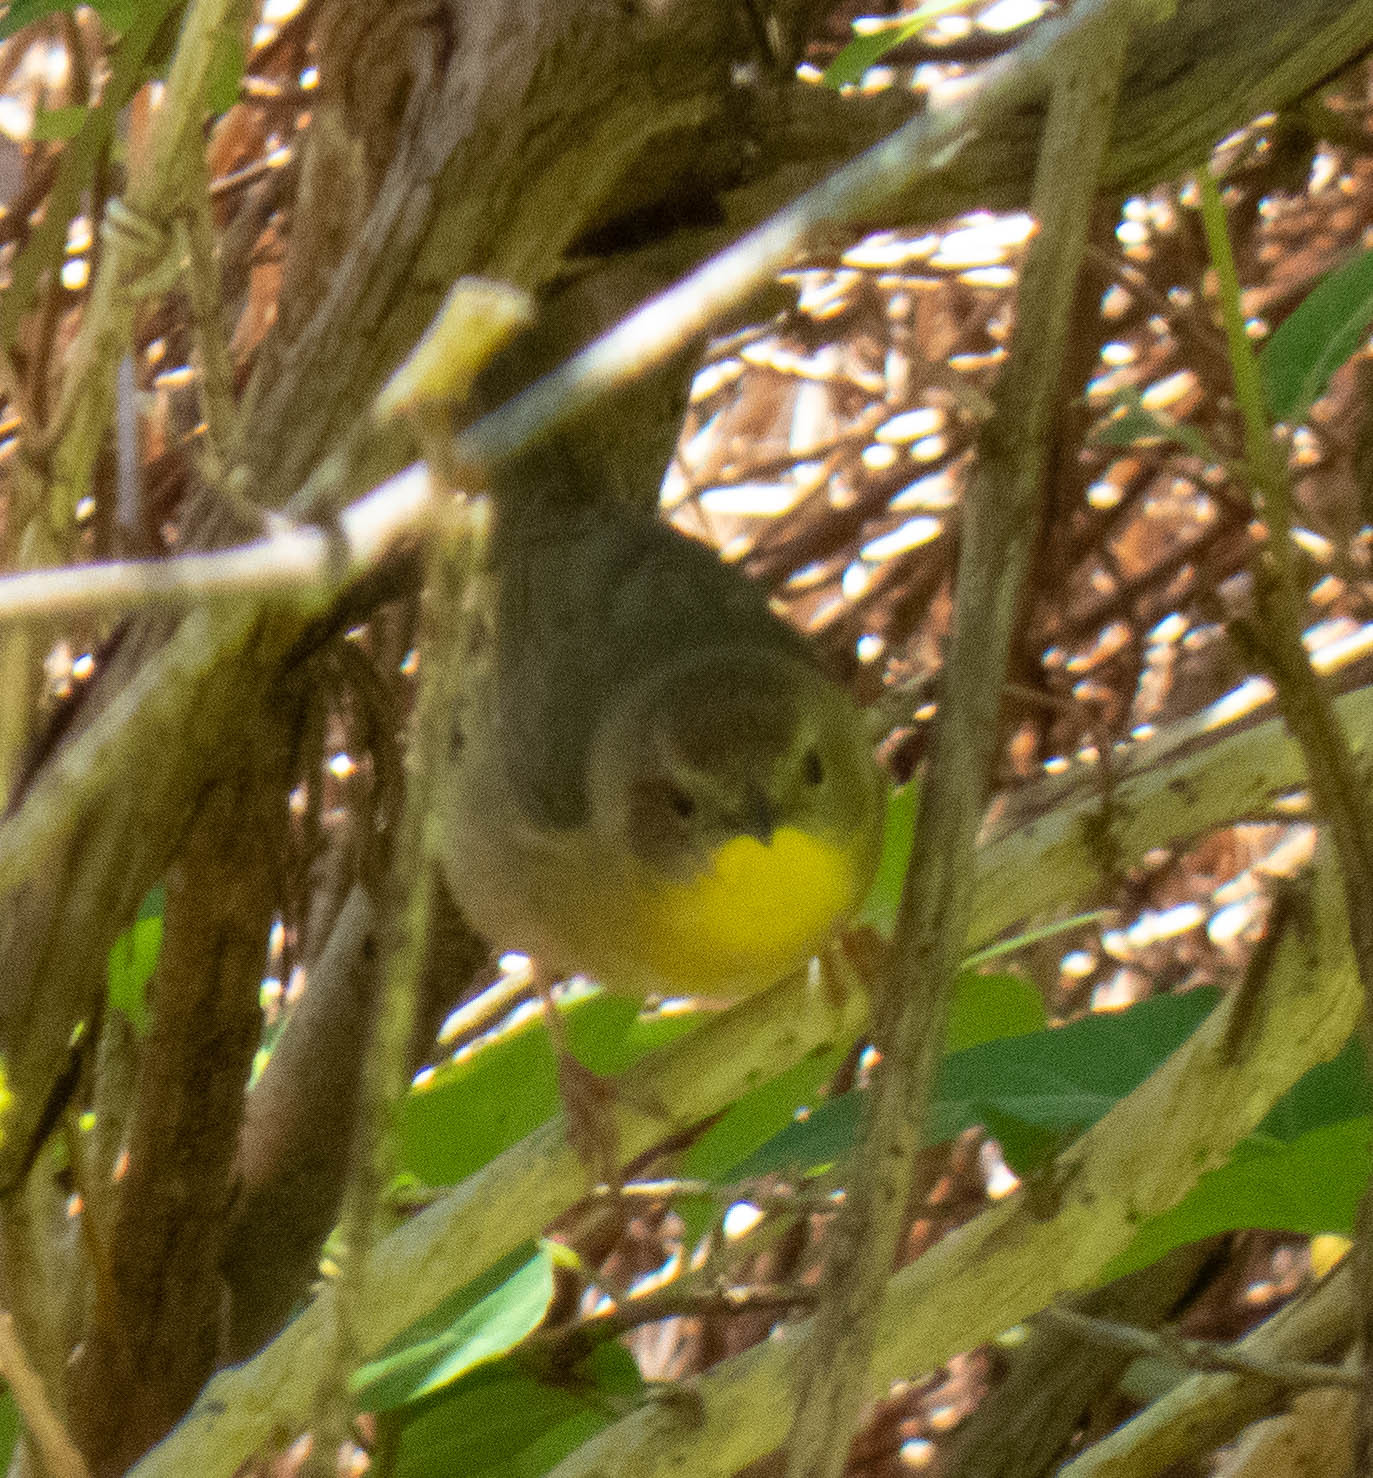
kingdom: Animalia
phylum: Chordata
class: Aves
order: Passeriformes
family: Parulidae
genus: Geothlypis
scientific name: Geothlypis trichas
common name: Common yellowthroat
